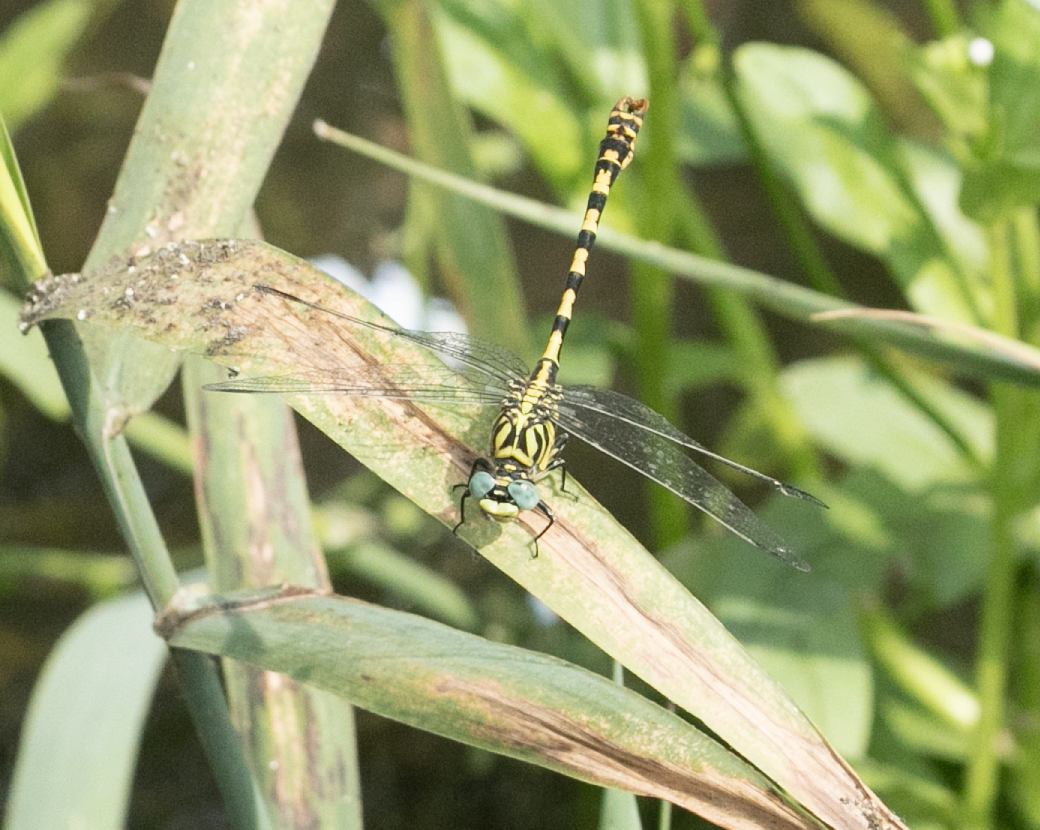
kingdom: Animalia
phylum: Arthropoda
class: Insecta
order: Odonata
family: Gomphidae
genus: Onychogomphus
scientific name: Onychogomphus forcipatus
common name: Small pincertail
